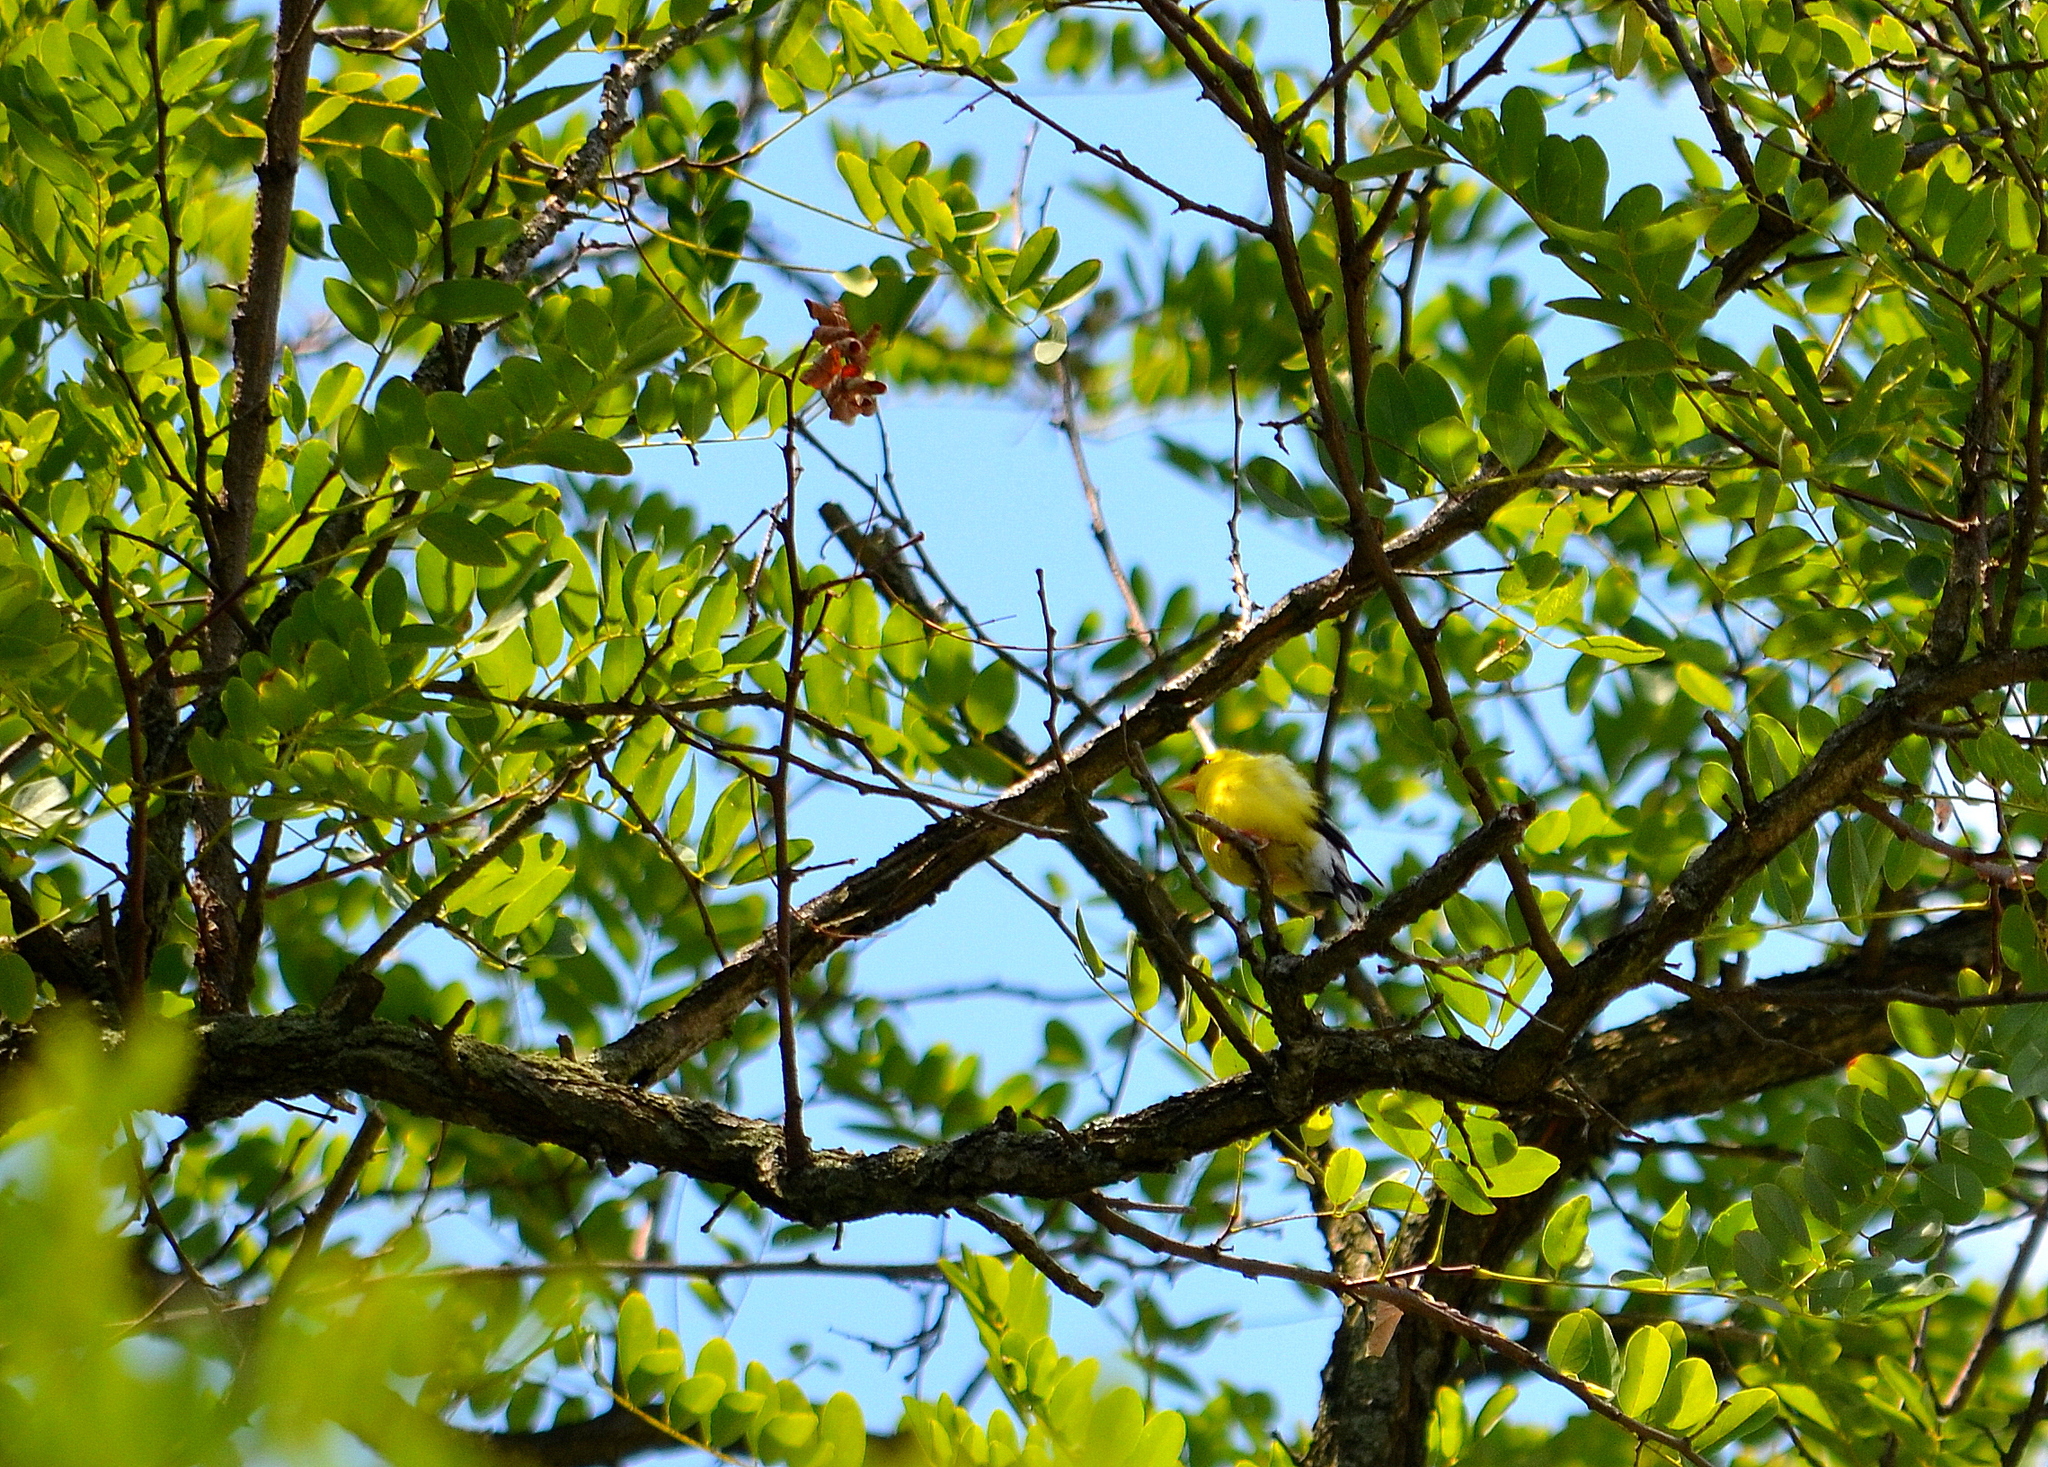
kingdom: Animalia
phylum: Chordata
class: Aves
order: Passeriformes
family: Fringillidae
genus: Spinus
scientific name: Spinus tristis
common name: American goldfinch
